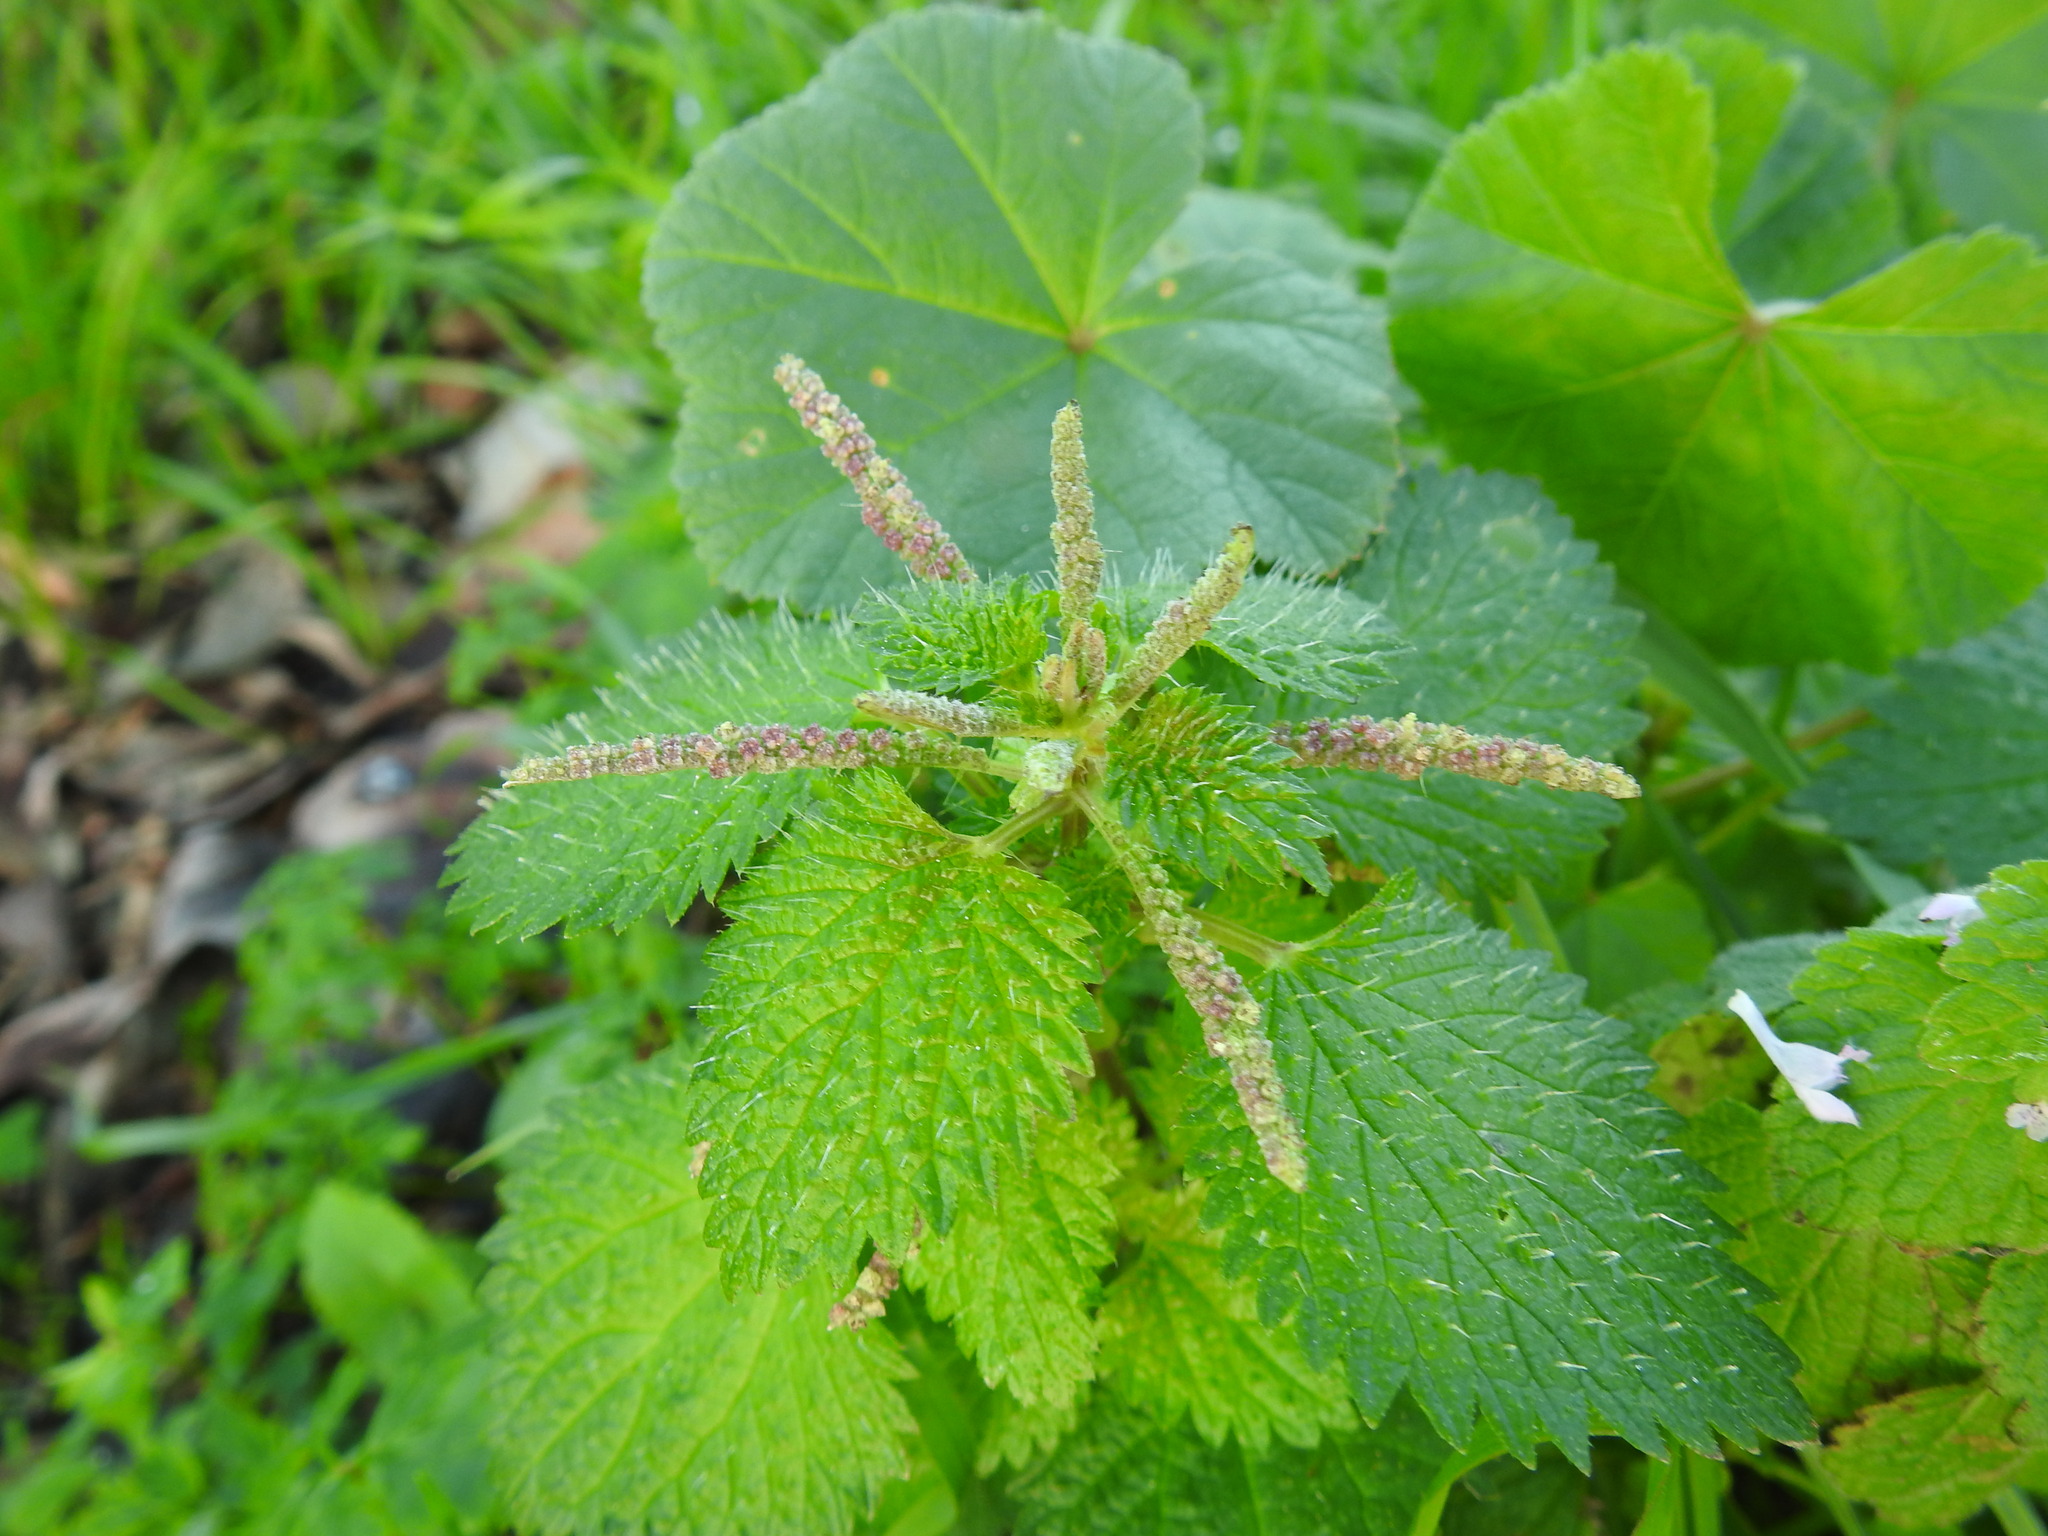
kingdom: Plantae
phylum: Tracheophyta
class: Magnoliopsida
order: Rosales
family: Urticaceae
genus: Urtica
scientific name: Urtica membranacea
